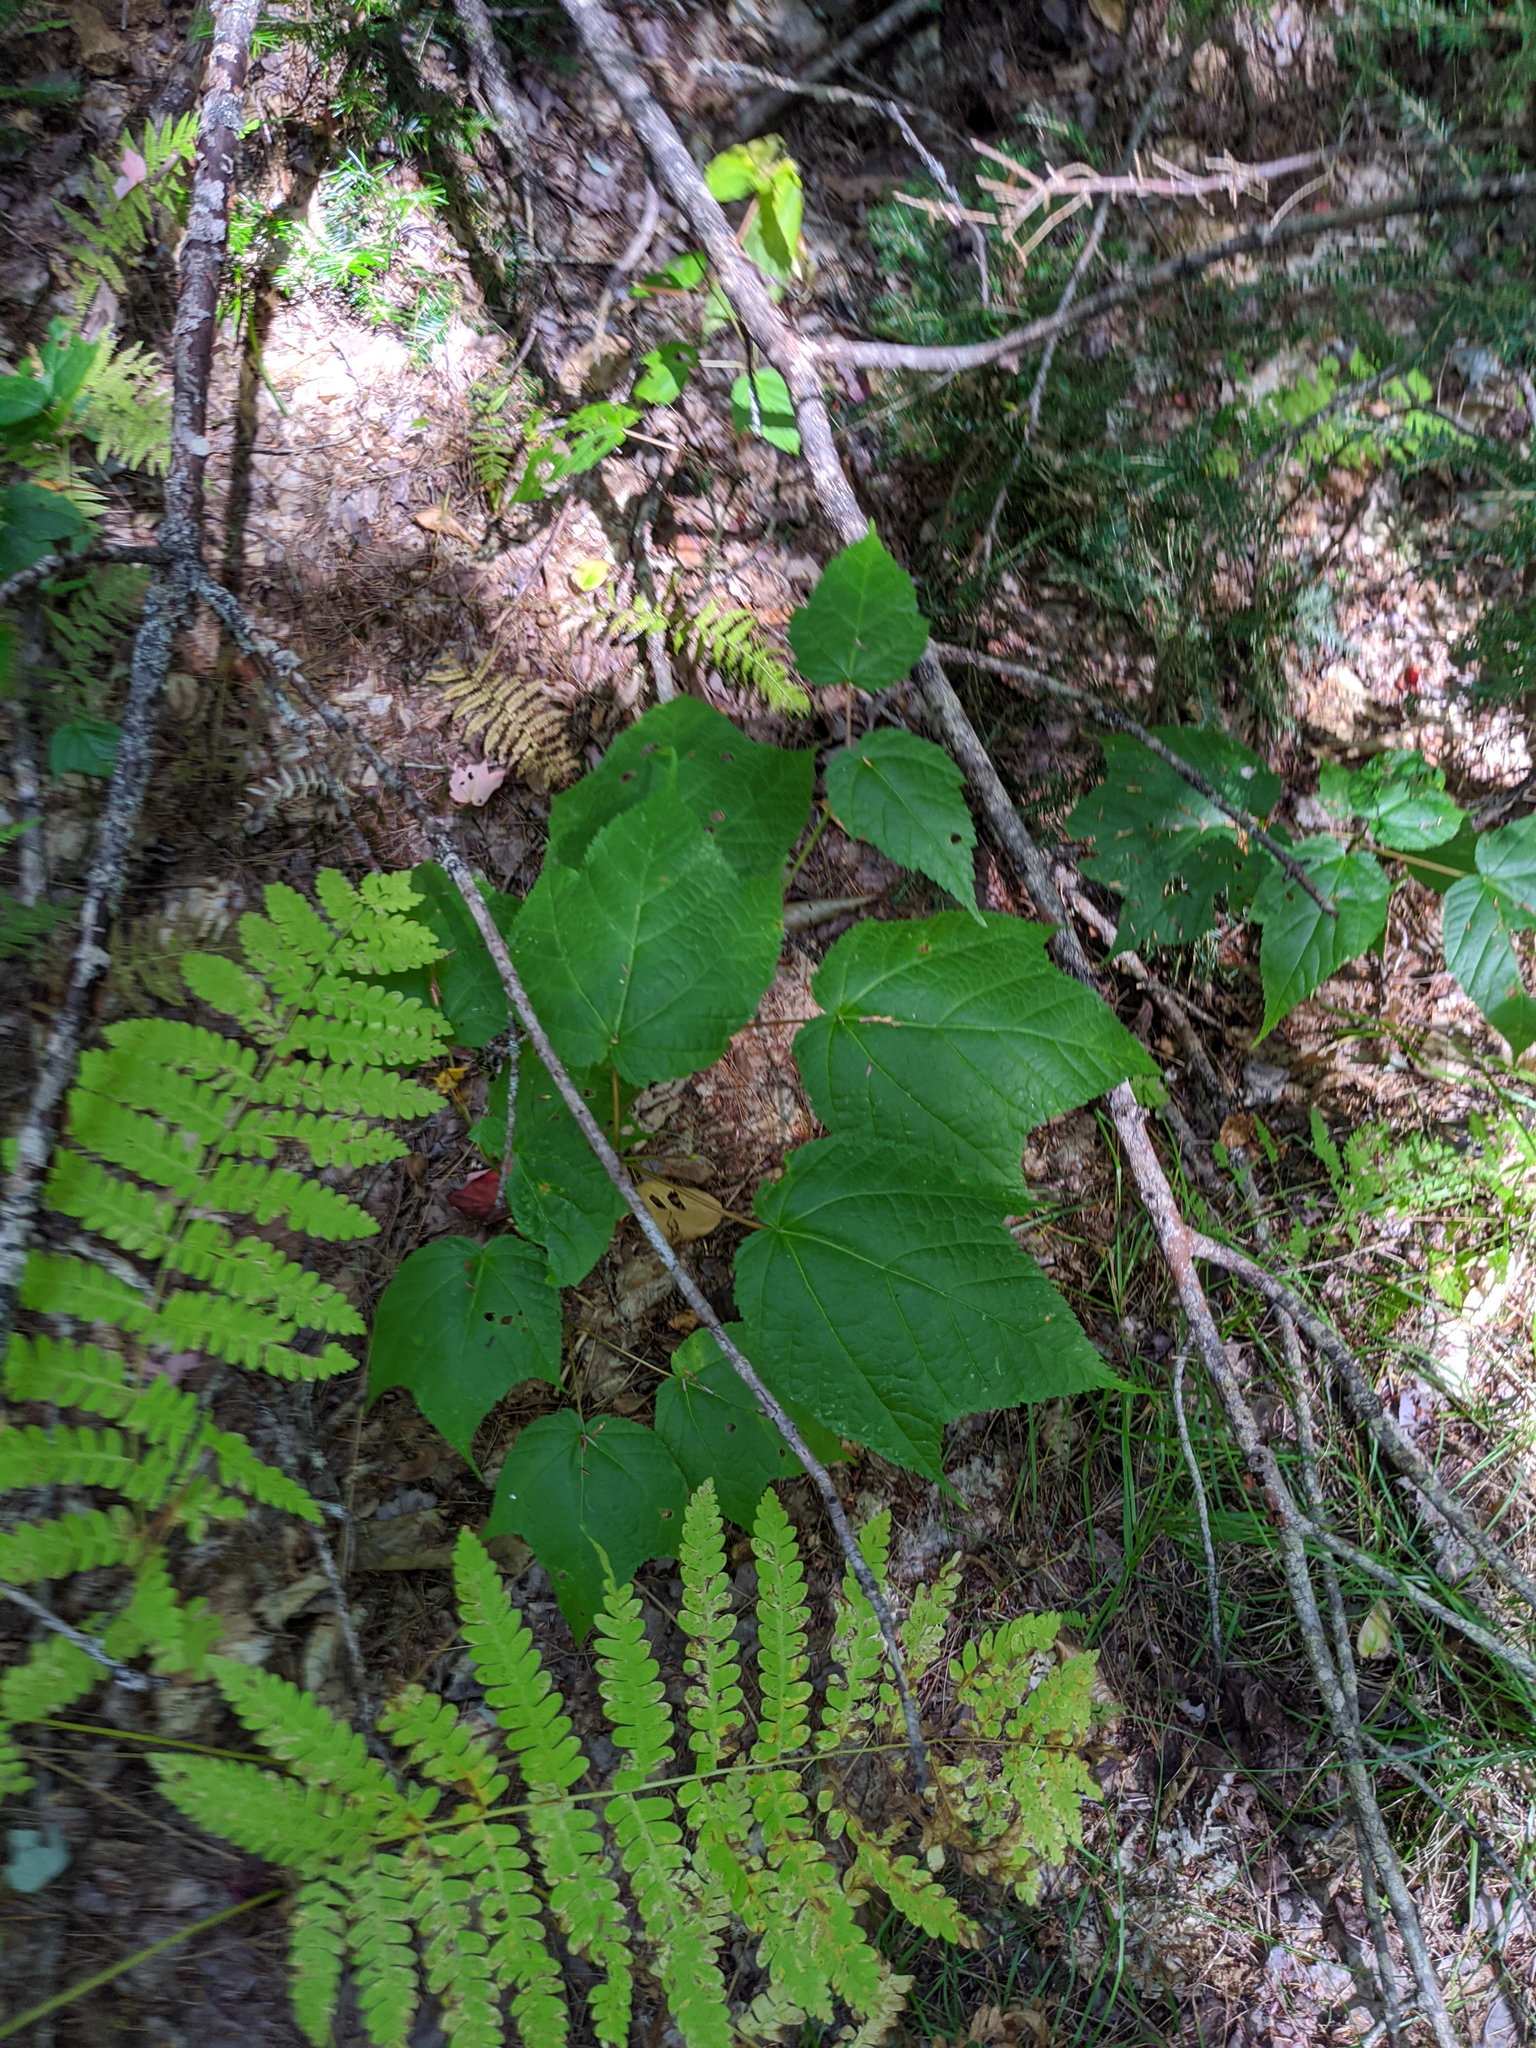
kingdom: Plantae
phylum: Tracheophyta
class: Magnoliopsida
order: Sapindales
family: Sapindaceae
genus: Acer
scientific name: Acer pensylvanicum
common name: Moosewood
